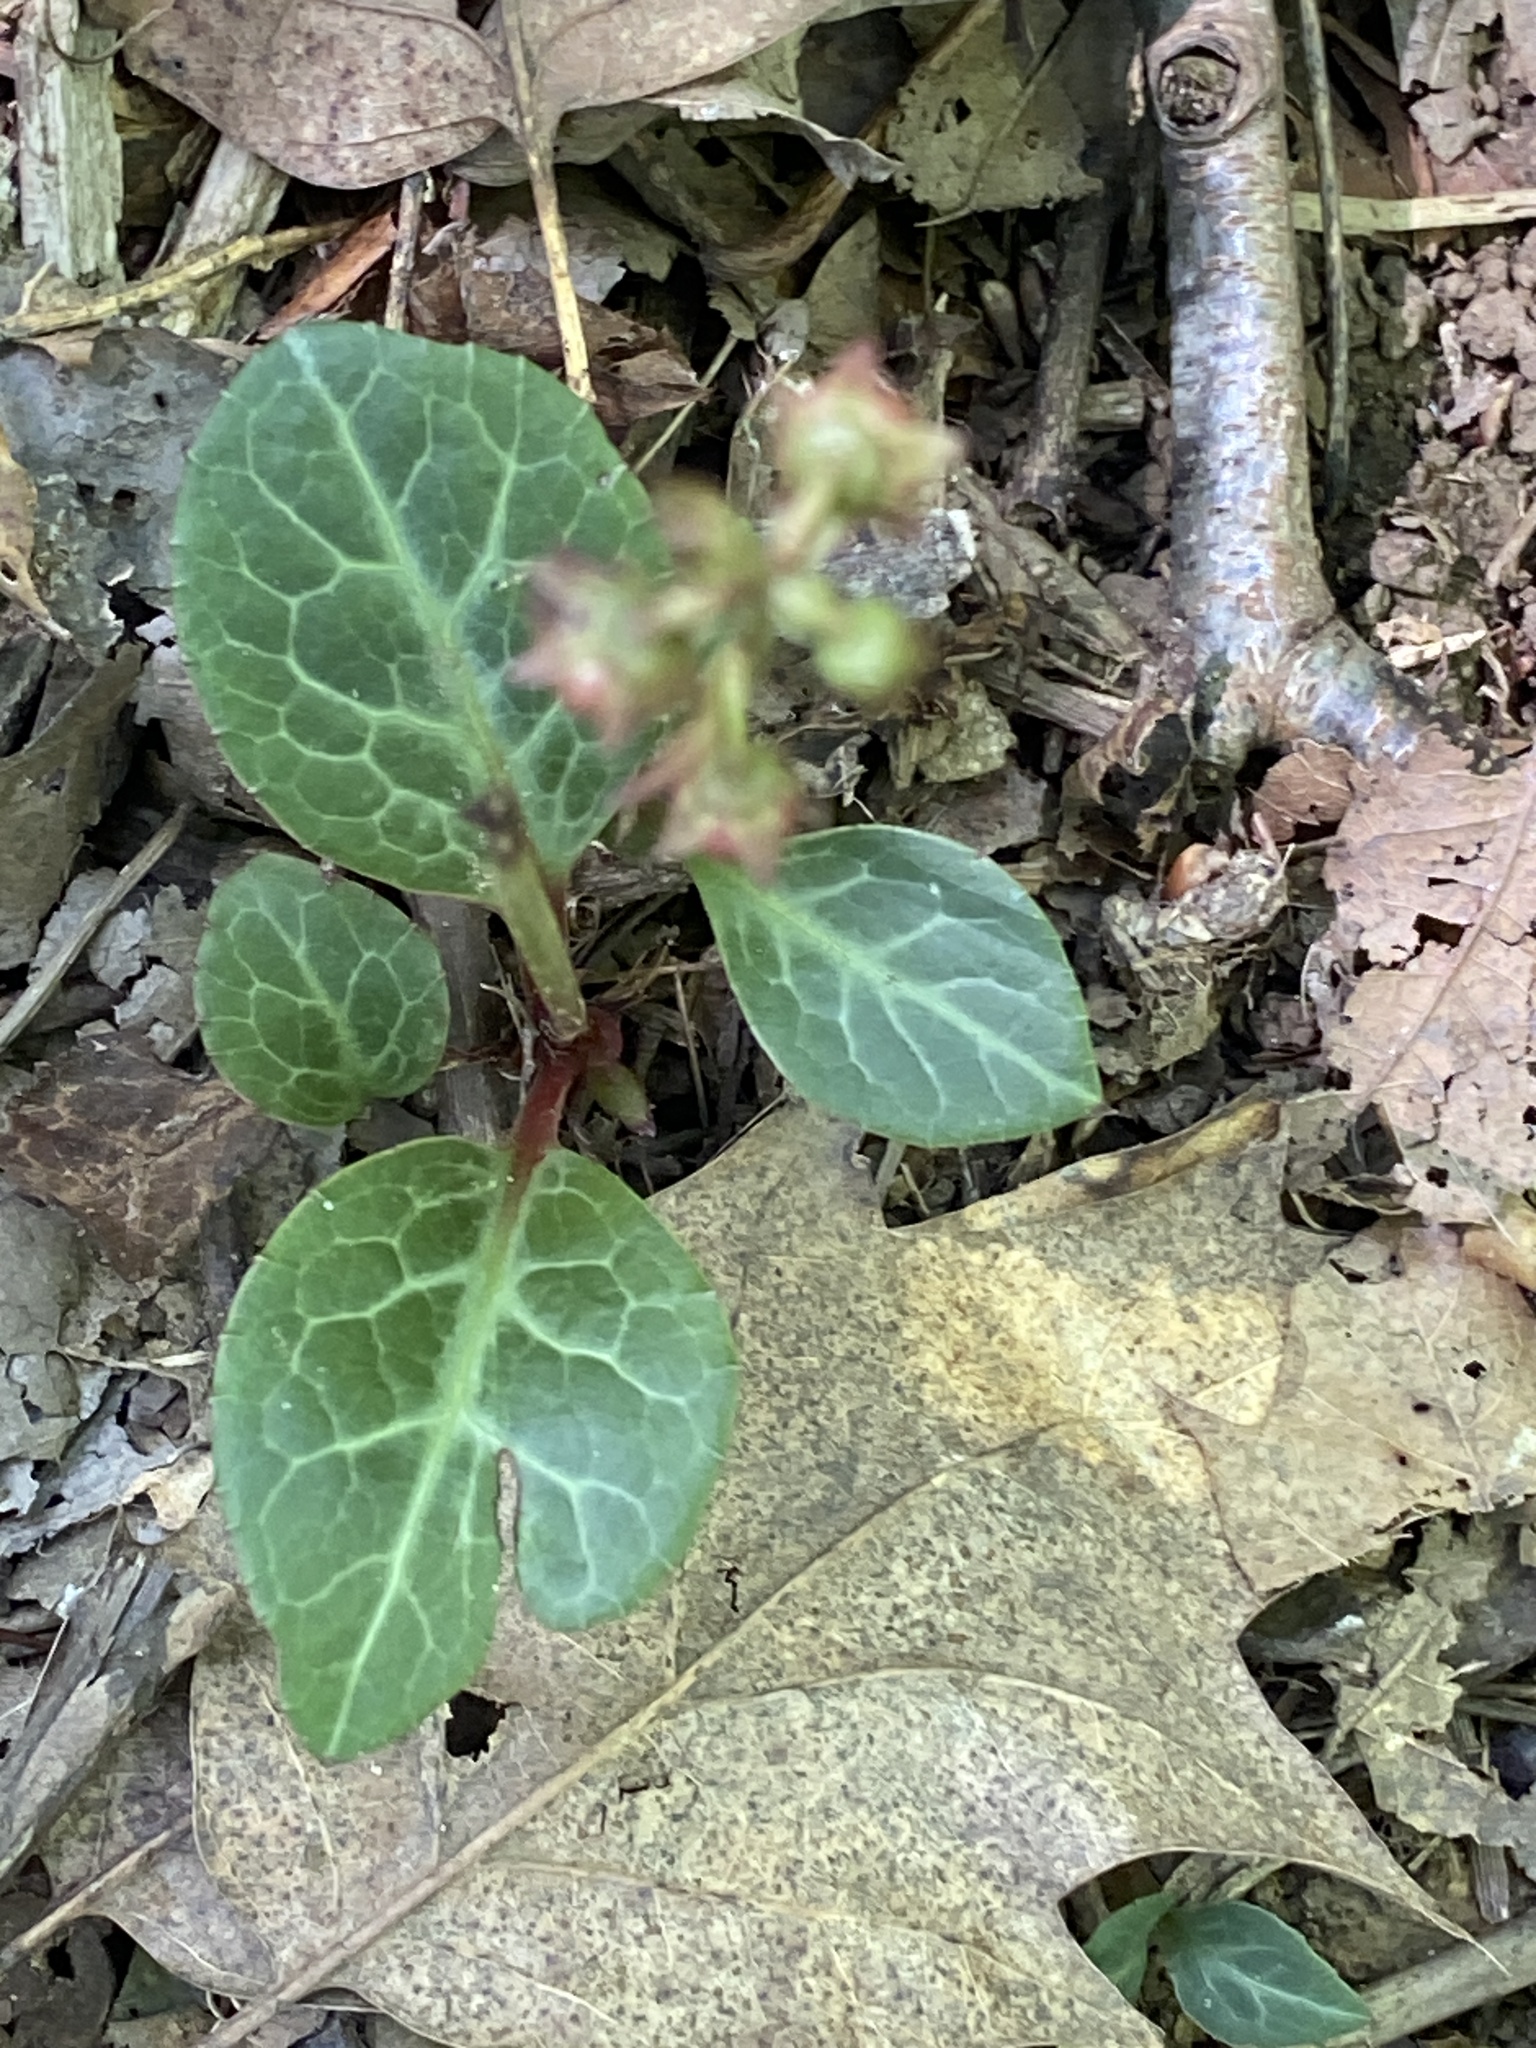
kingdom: Plantae
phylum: Tracheophyta
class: Magnoliopsida
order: Ericales
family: Ericaceae
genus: Pyrola
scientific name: Pyrola americana
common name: American wintergreen
